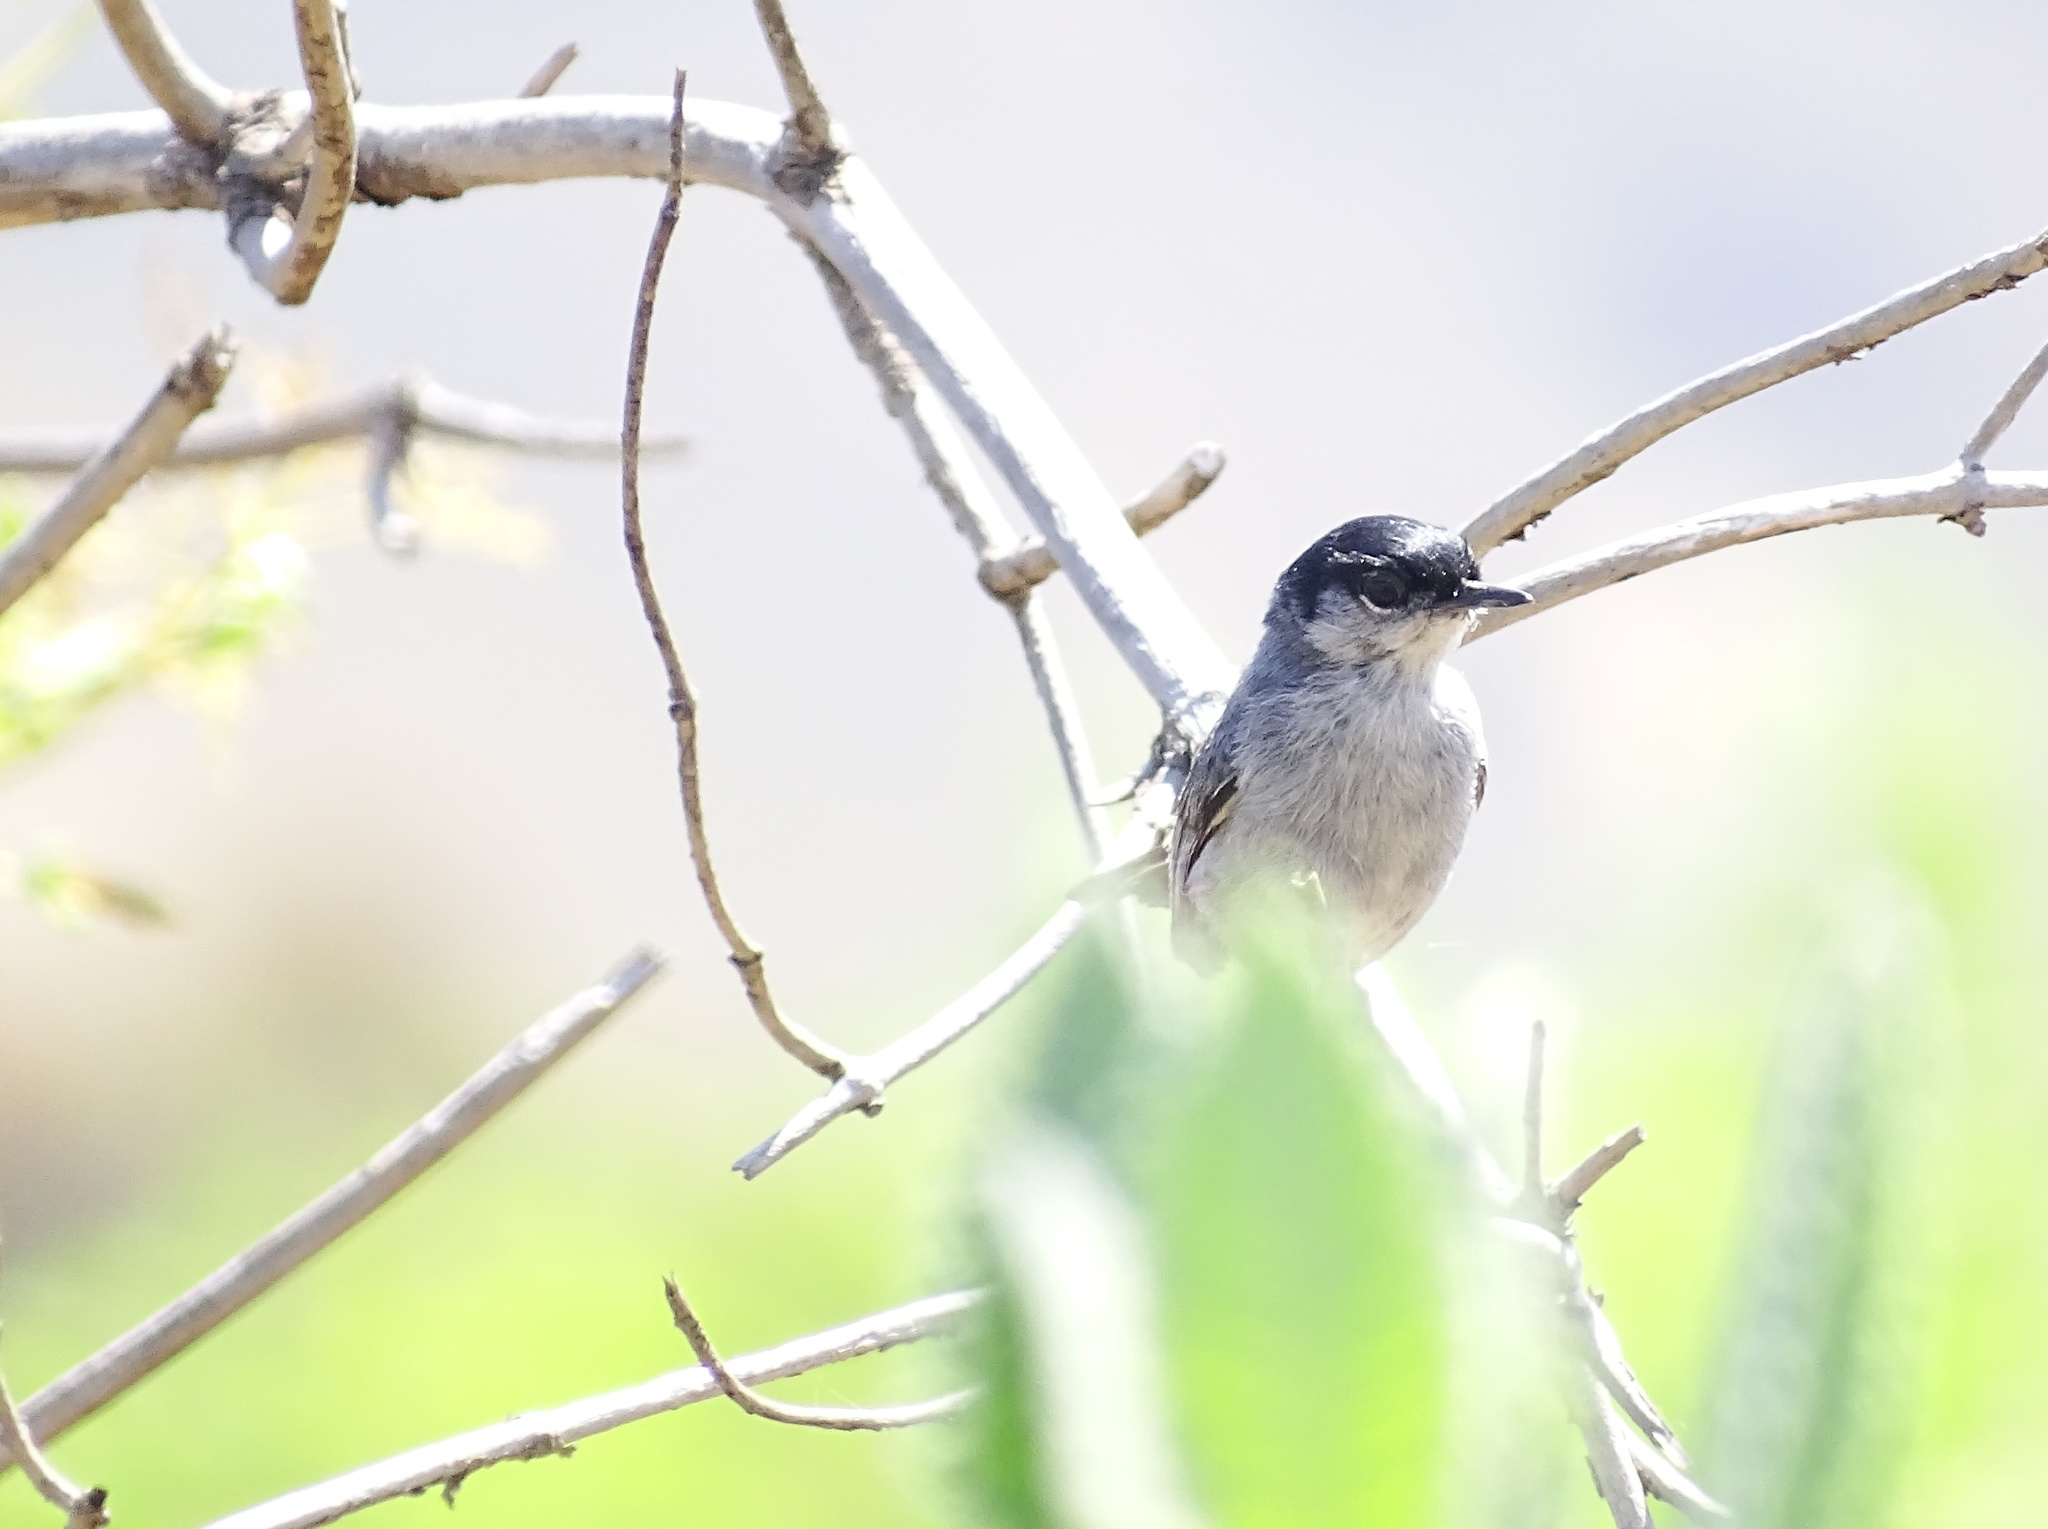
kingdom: Animalia
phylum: Chordata
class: Aves
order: Passeriformes
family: Polioptilidae
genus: Polioptila
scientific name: Polioptila californica
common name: California gnatcatcher
